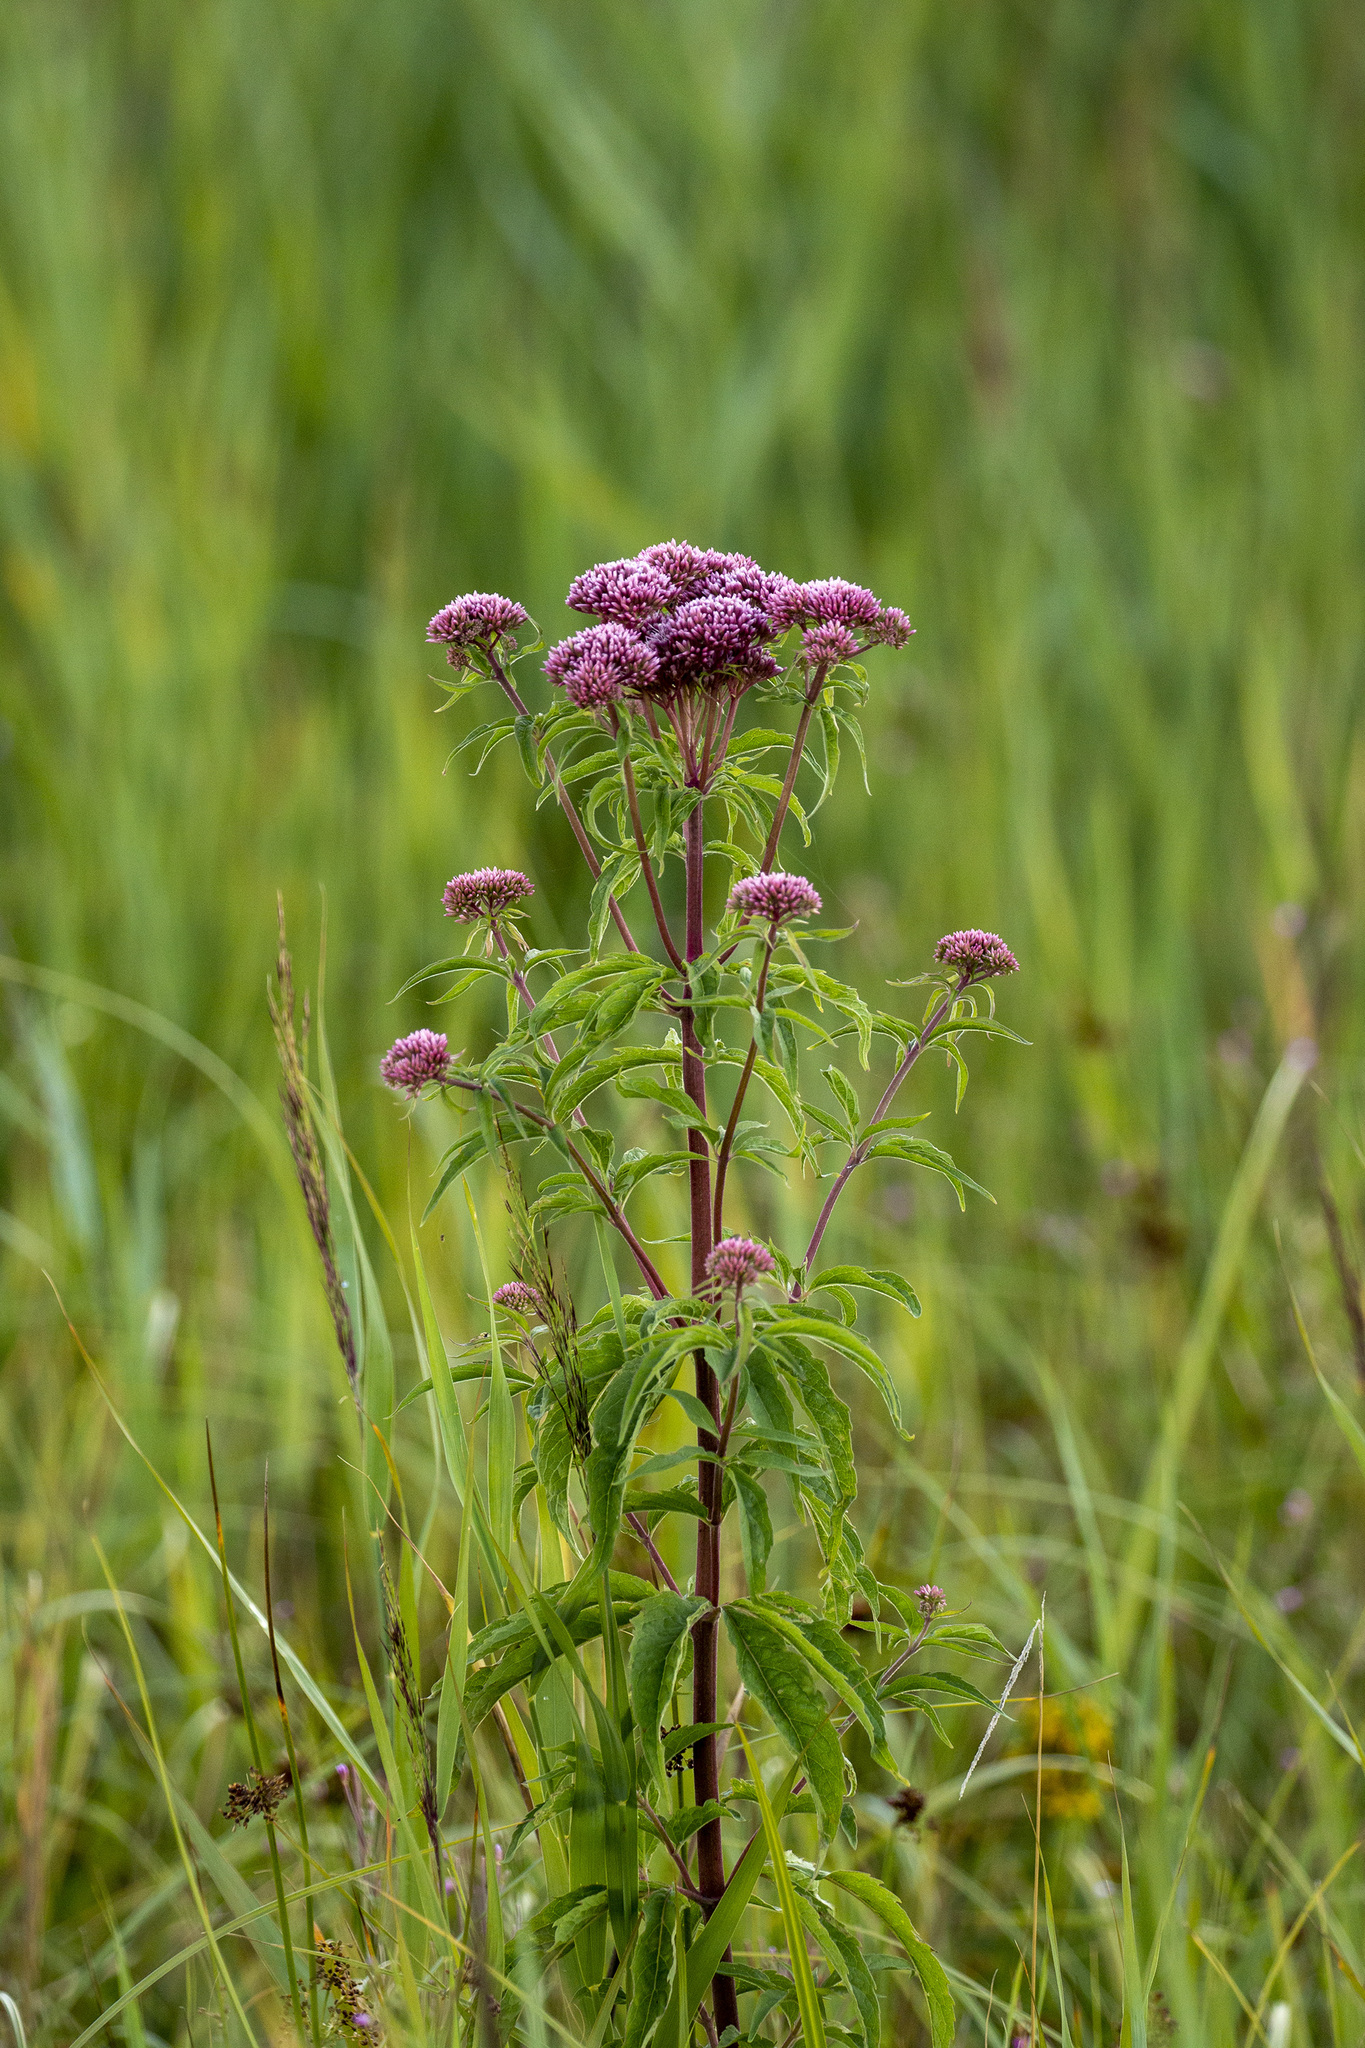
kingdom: Plantae
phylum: Tracheophyta
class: Magnoliopsida
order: Asterales
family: Asteraceae
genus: Eupatorium
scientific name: Eupatorium cannabinum
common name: Hemp-agrimony
